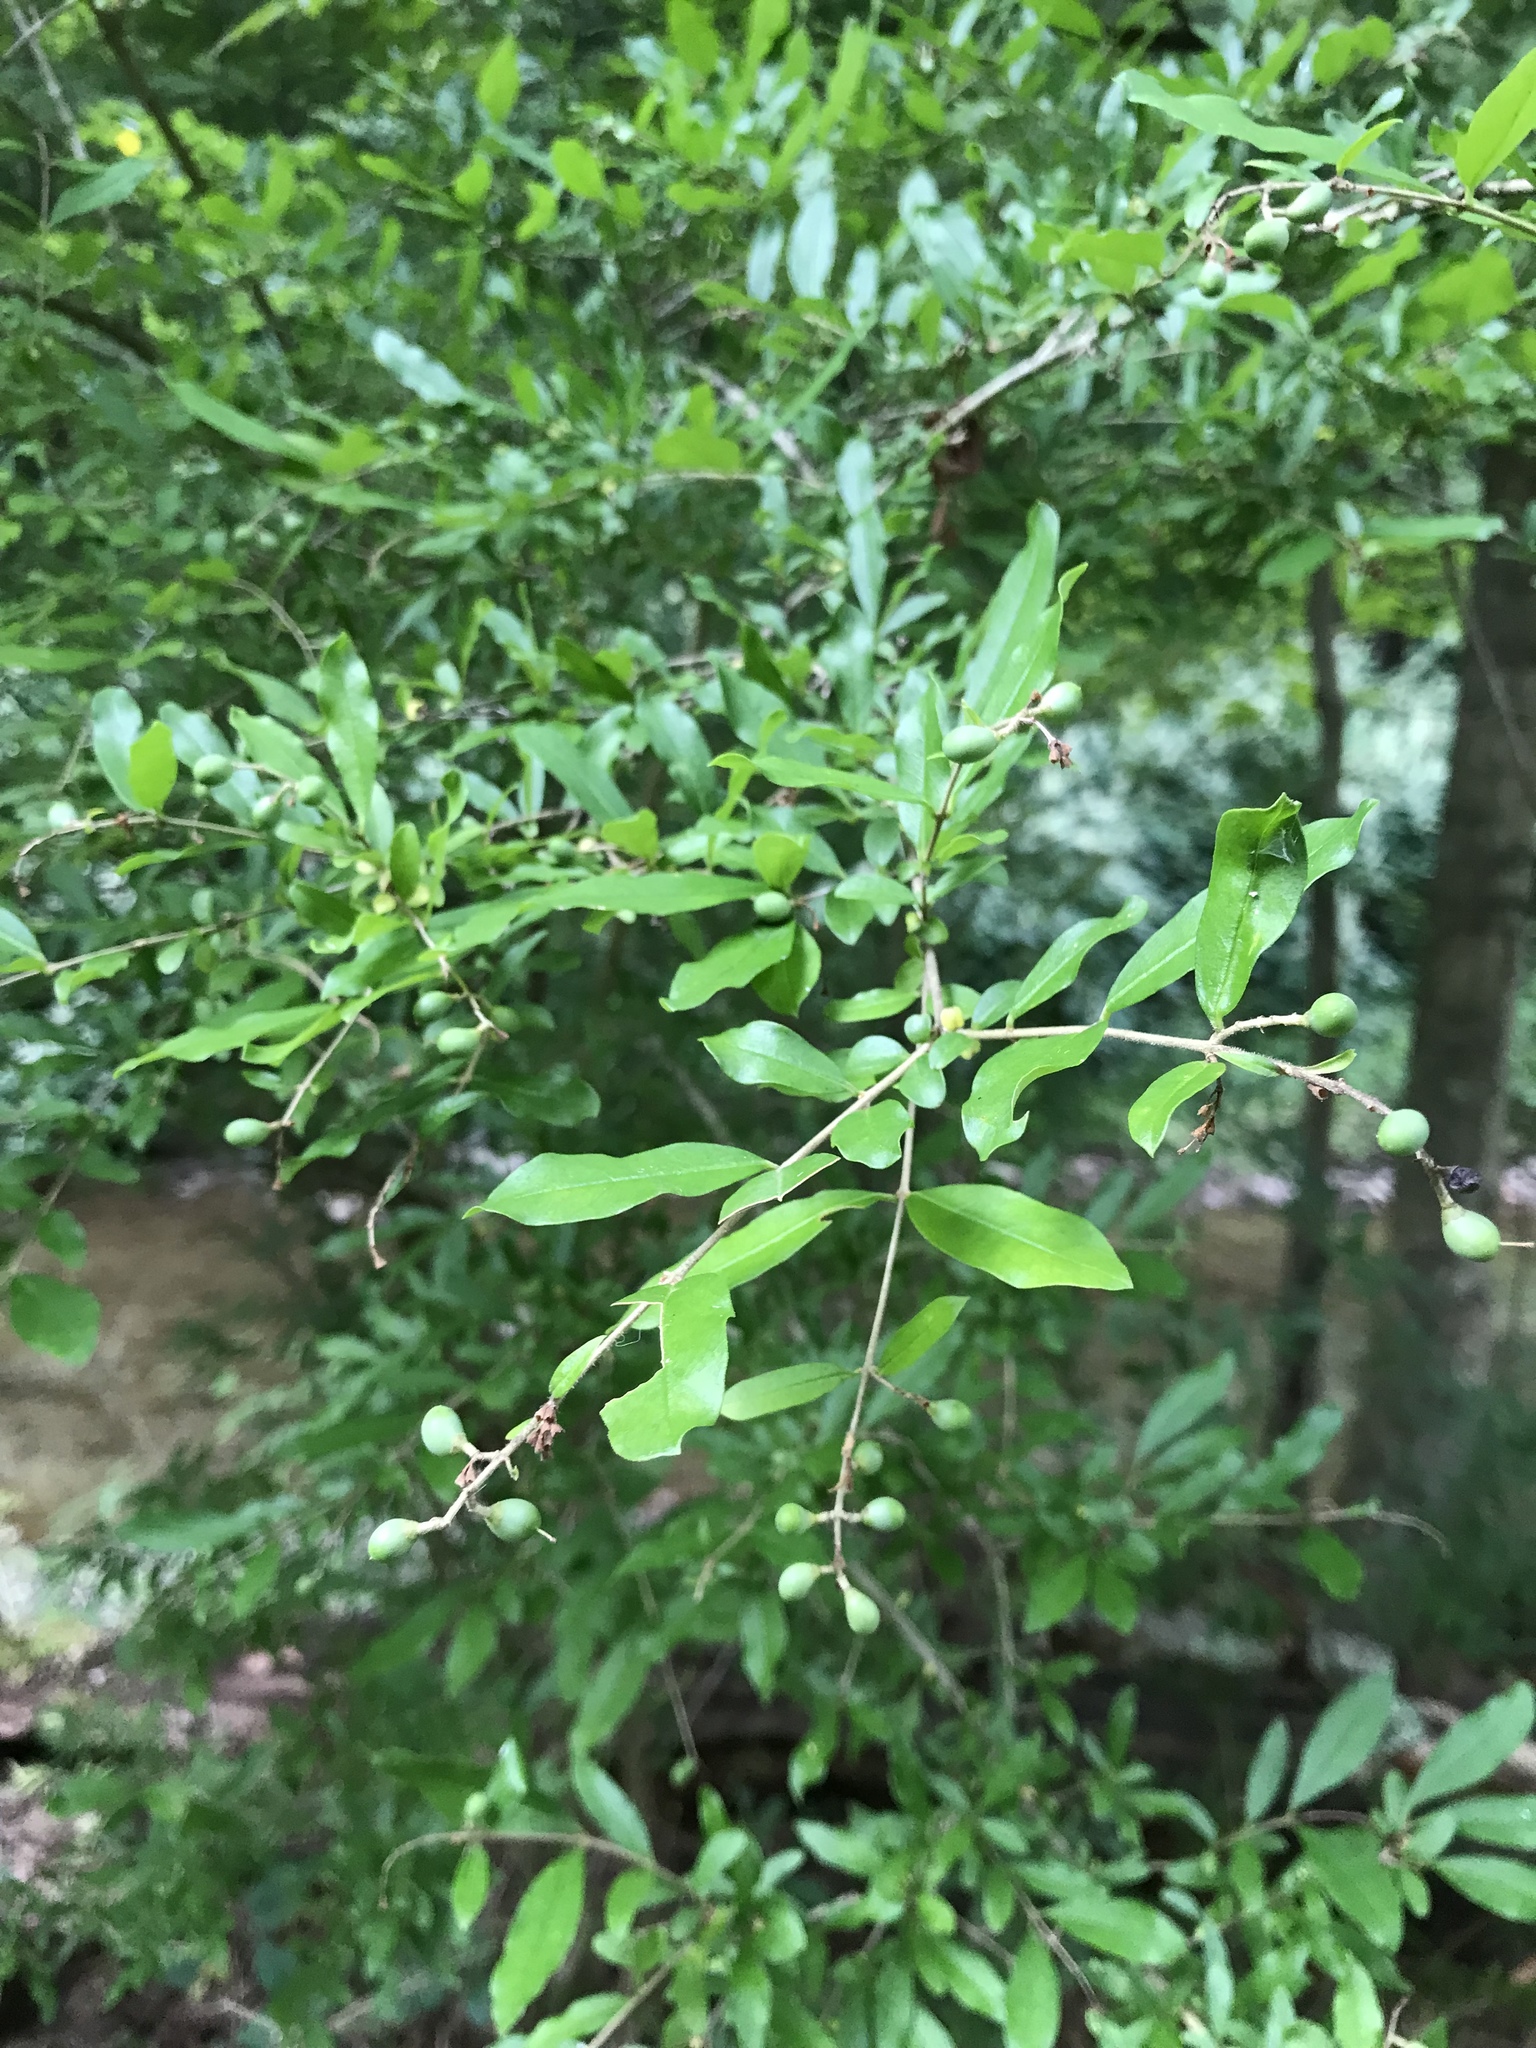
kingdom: Plantae
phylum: Tracheophyta
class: Magnoliopsida
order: Lamiales
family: Oleaceae
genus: Ligustrum
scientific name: Ligustrum obtusifolium
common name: Border privet
